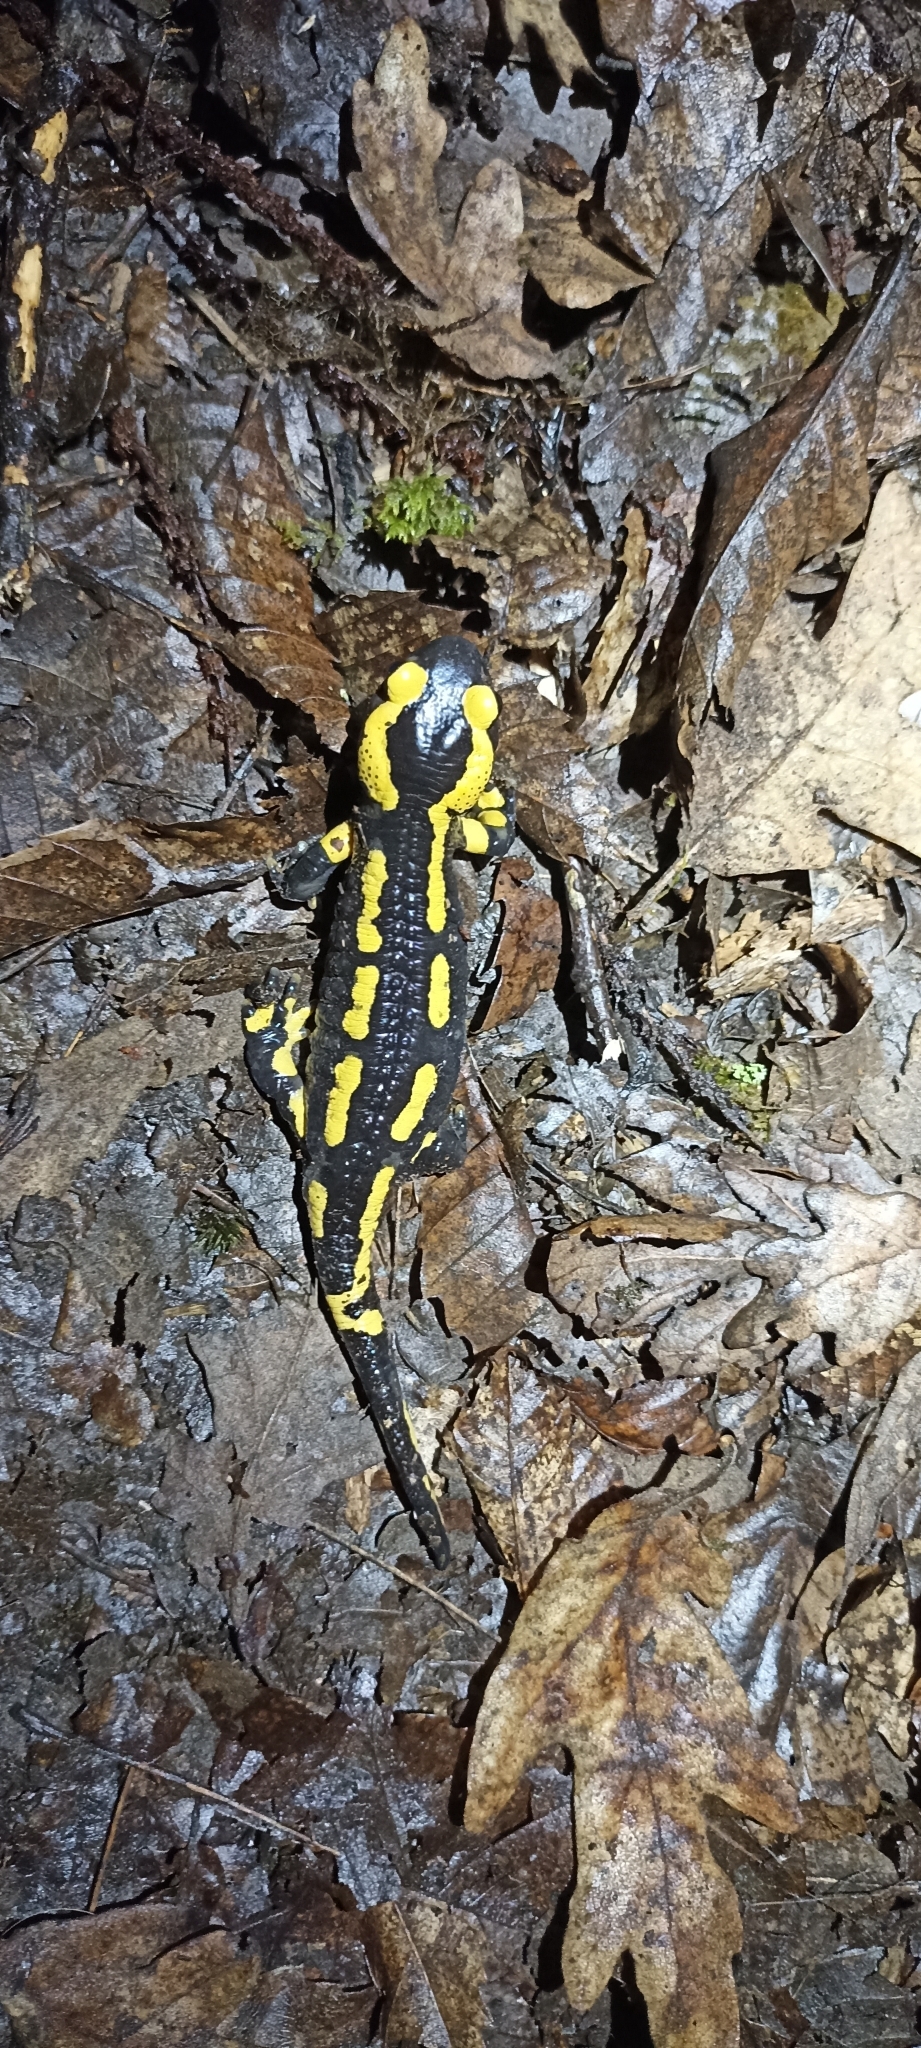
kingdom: Animalia
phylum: Chordata
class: Amphibia
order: Caudata
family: Salamandridae
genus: Salamandra
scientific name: Salamandra salamandra
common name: Fire salamander
